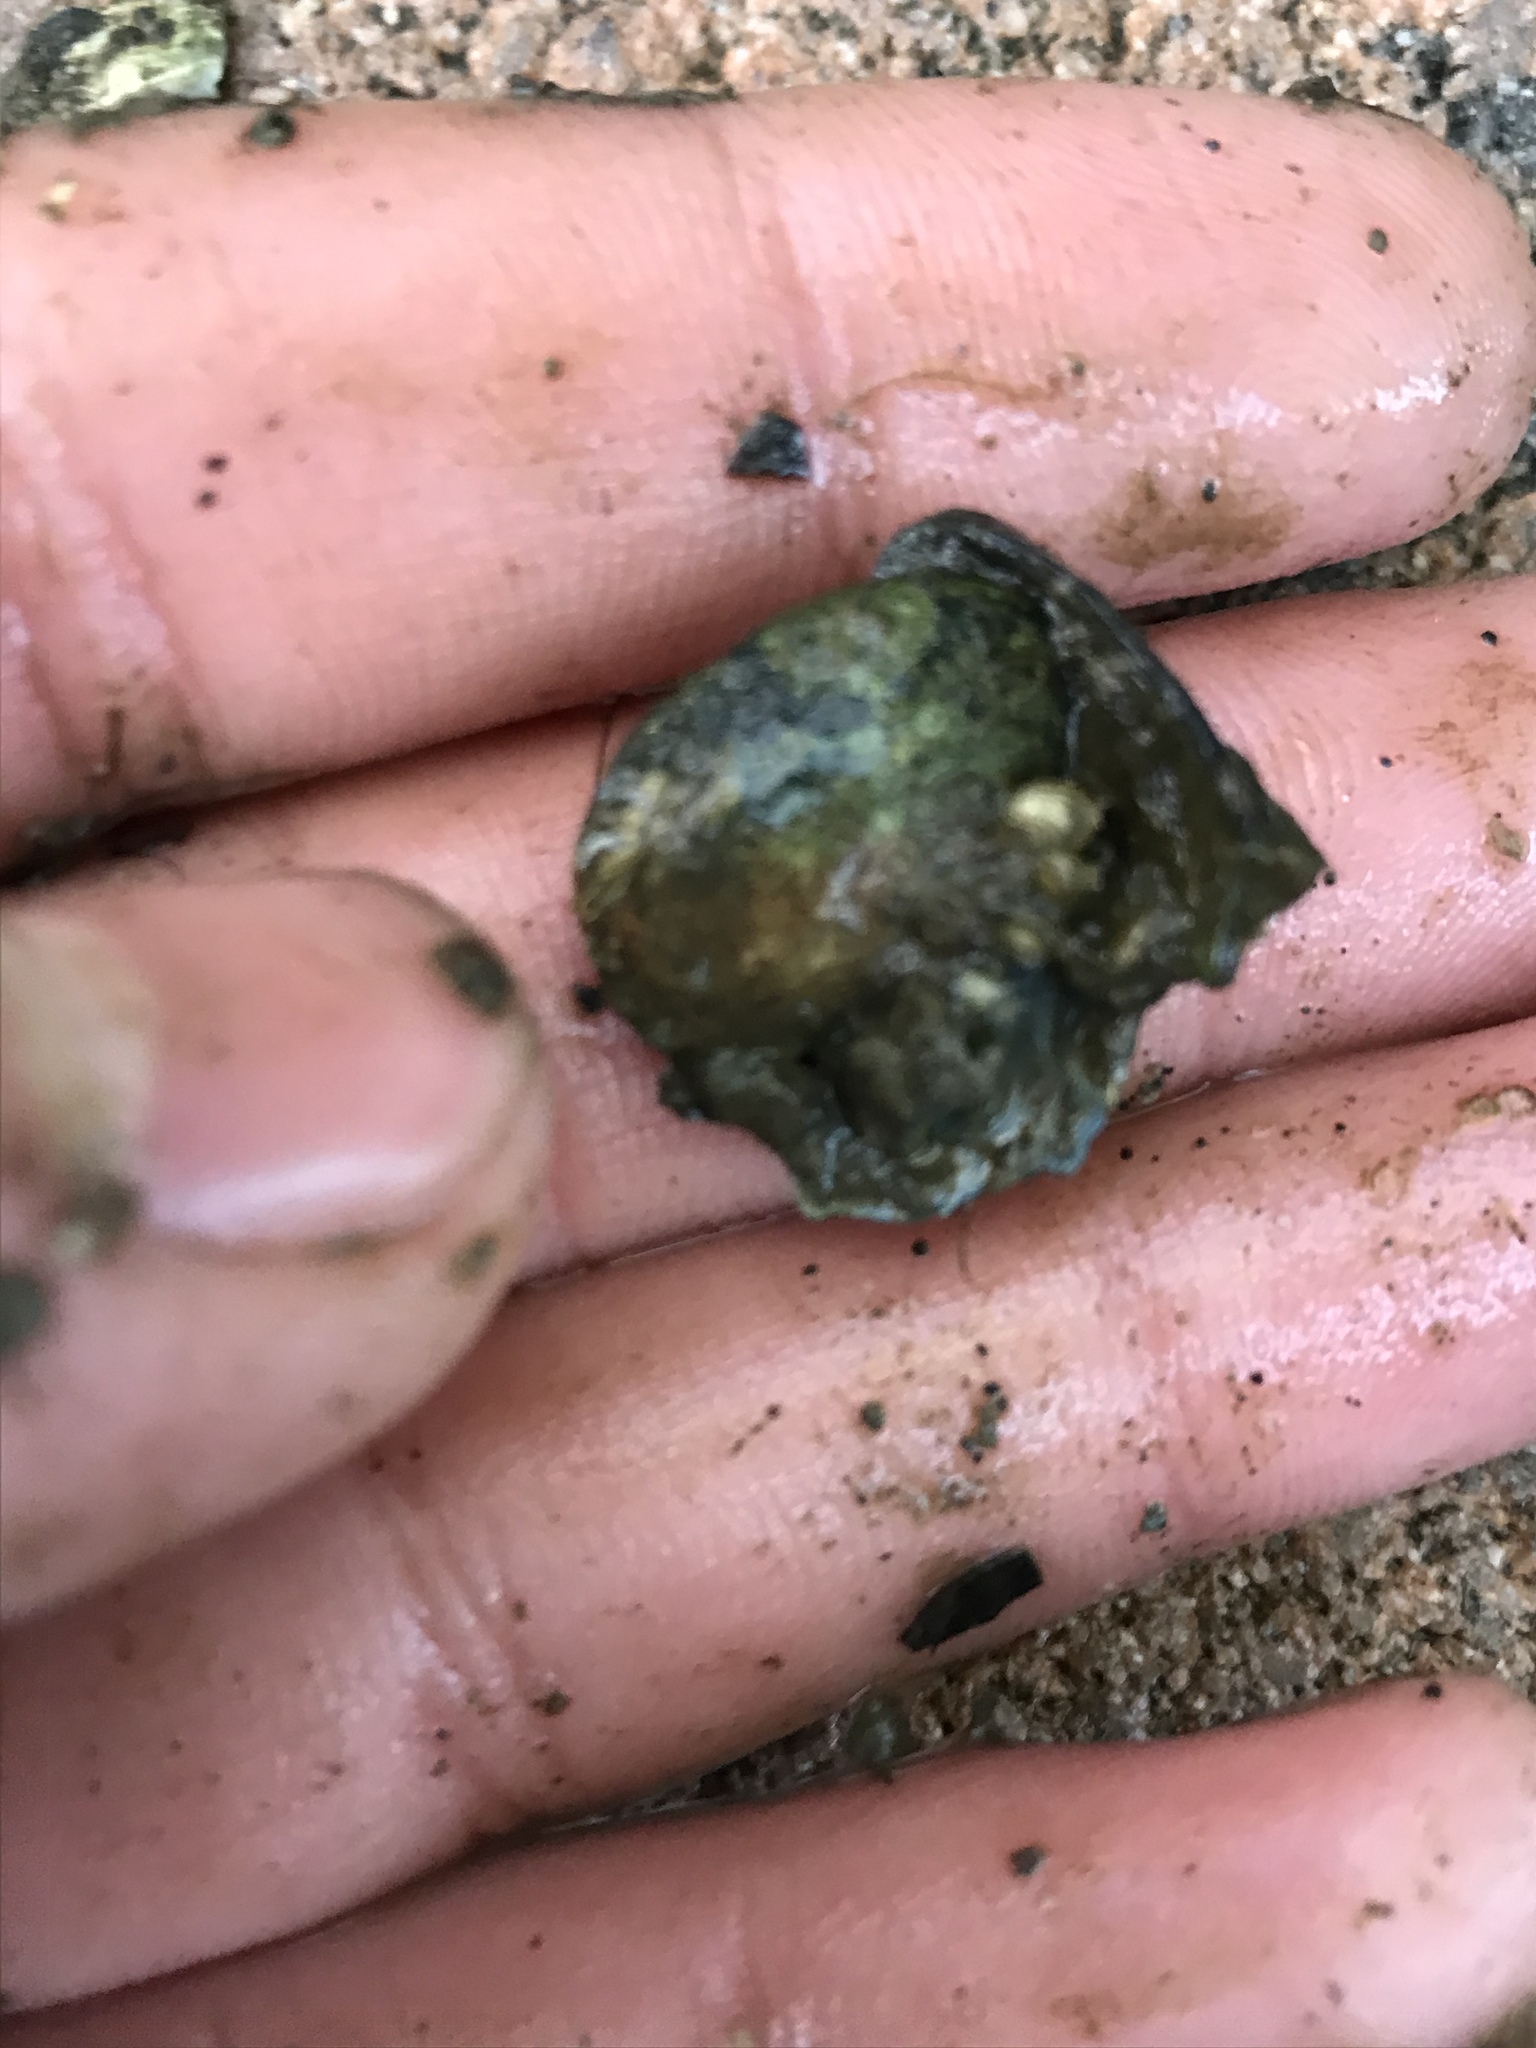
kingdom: Animalia
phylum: Mollusca
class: Gastropoda
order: Neogastropoda
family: Nassariidae
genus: Ilyanassa
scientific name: Ilyanassa obsoleta
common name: Eastern mudsnail
